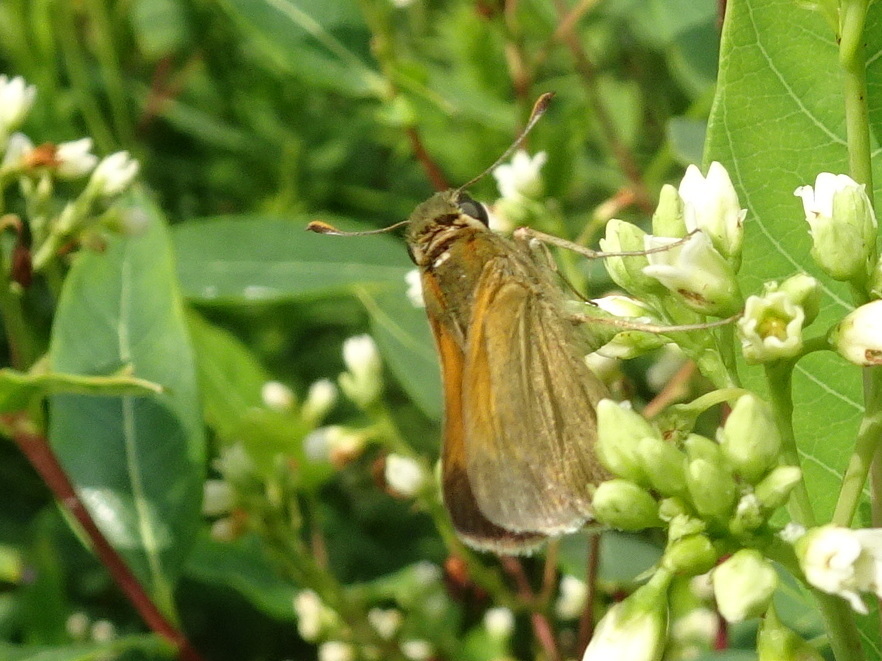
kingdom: Animalia
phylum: Arthropoda
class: Insecta
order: Lepidoptera
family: Hesperiidae
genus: Polites
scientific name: Polites themistocles
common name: Tawny-edged skipper
